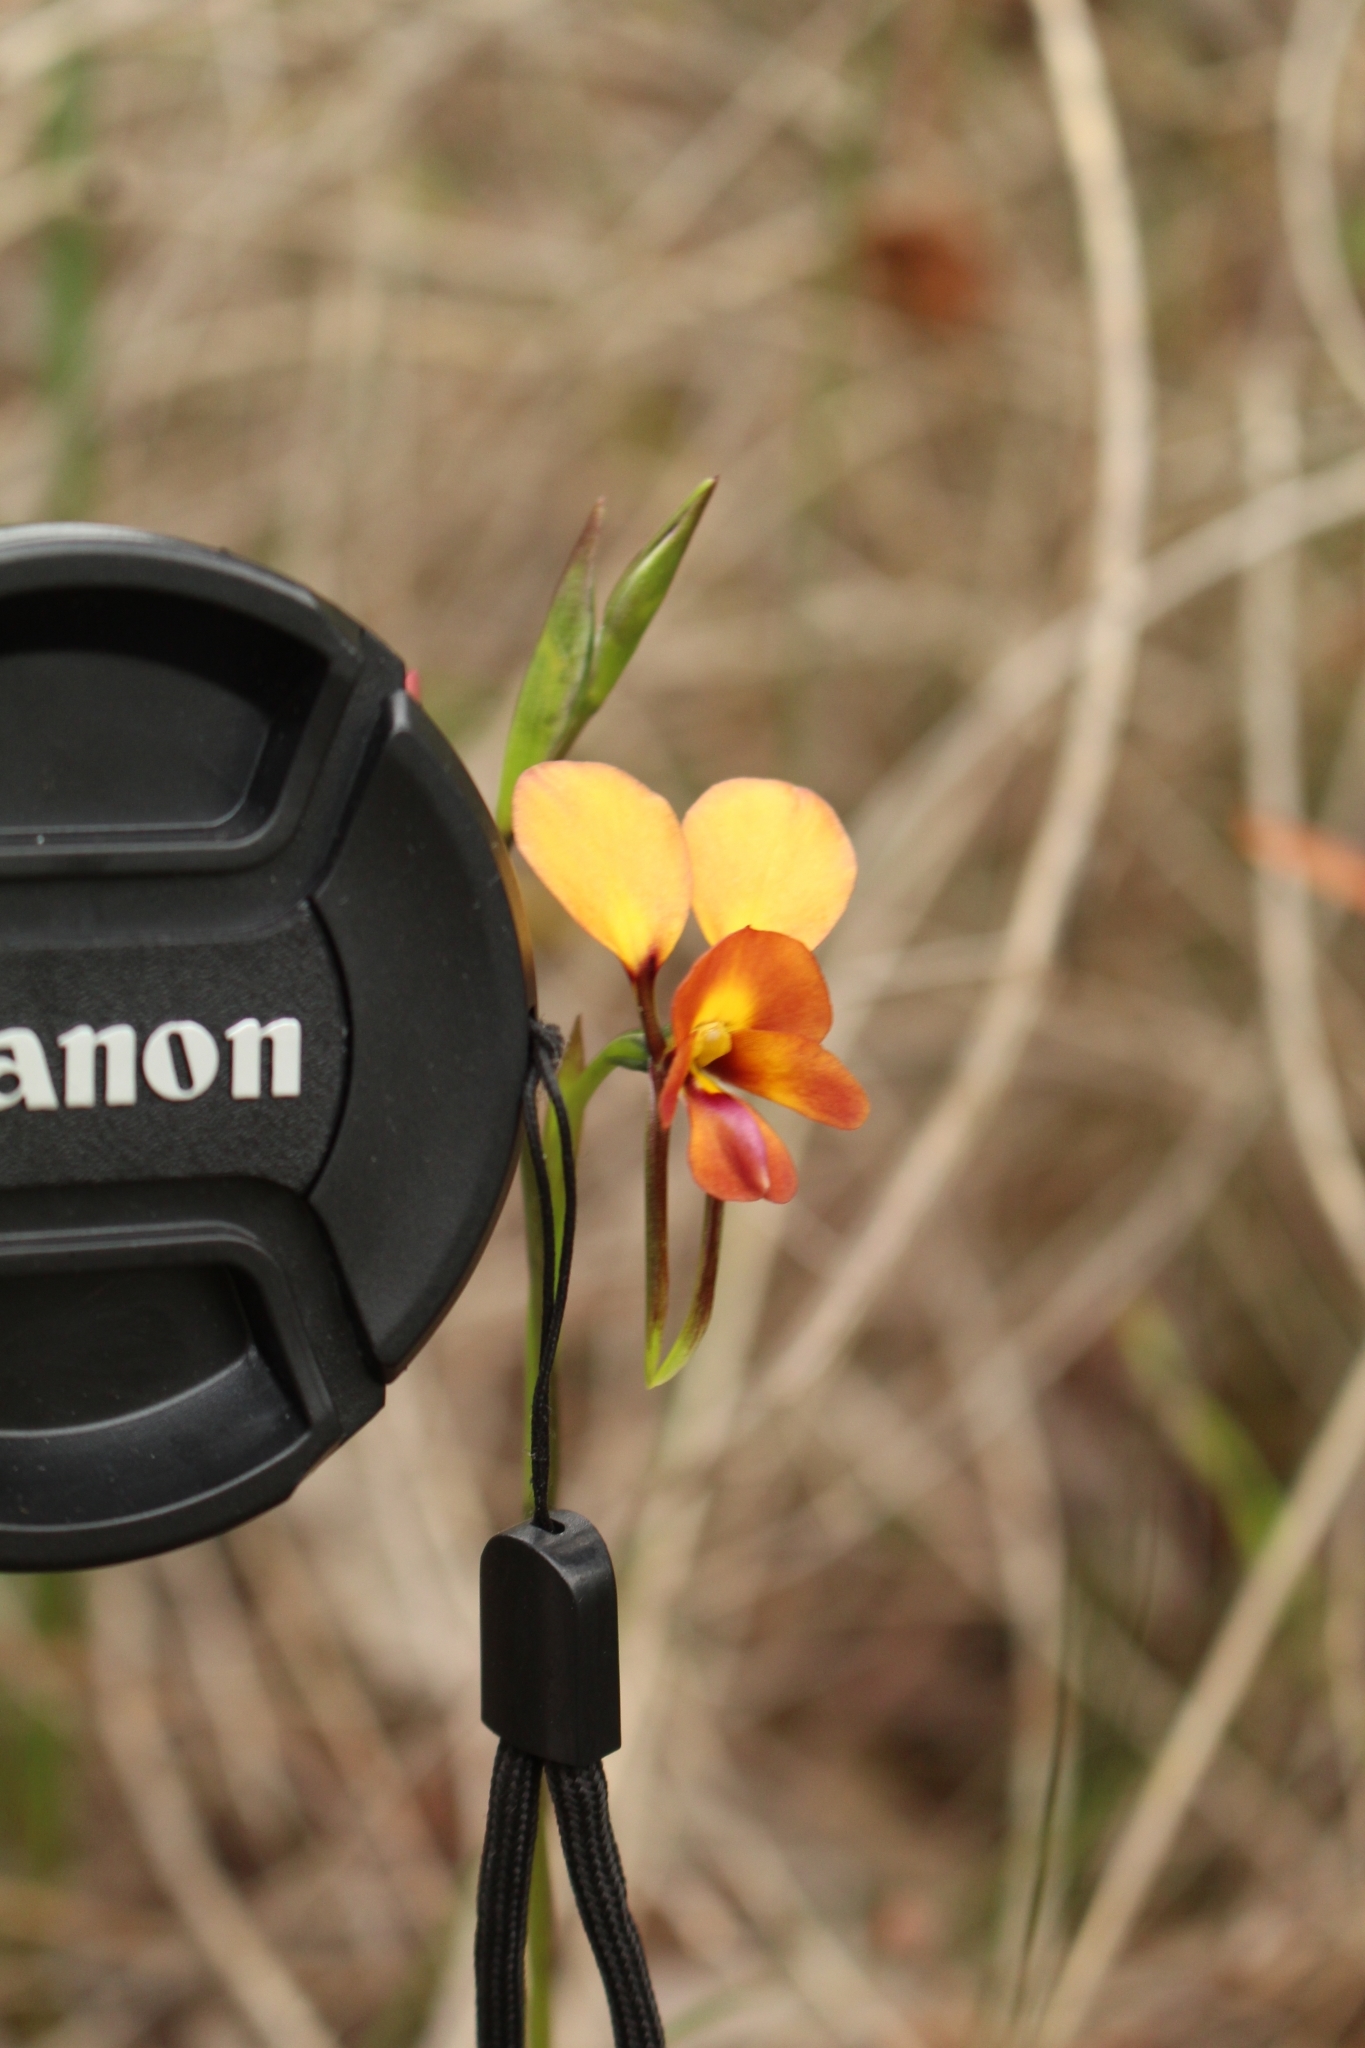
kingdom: Plantae
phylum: Tracheophyta
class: Liliopsida
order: Asparagales
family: Orchidaceae
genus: Diuris
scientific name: Diuris magnifica
